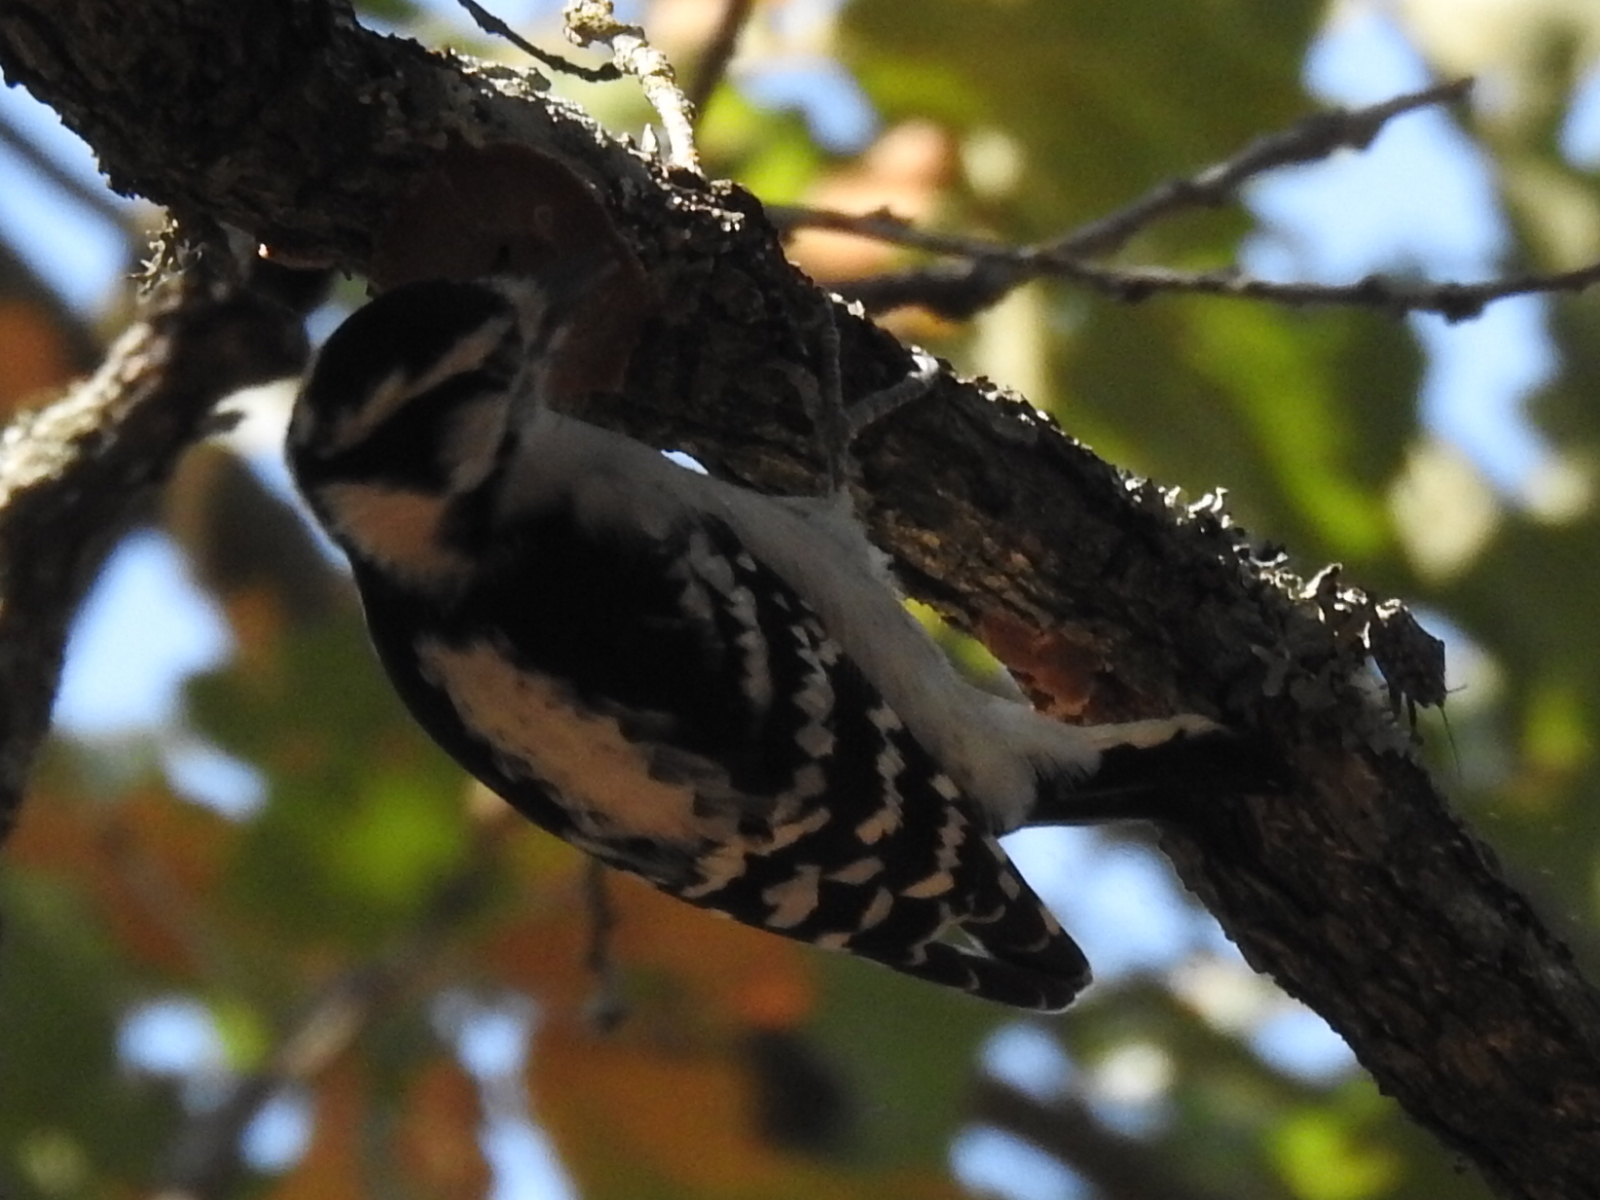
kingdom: Animalia
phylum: Chordata
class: Aves
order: Piciformes
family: Picidae
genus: Dryobates
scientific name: Dryobates pubescens
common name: Downy woodpecker
